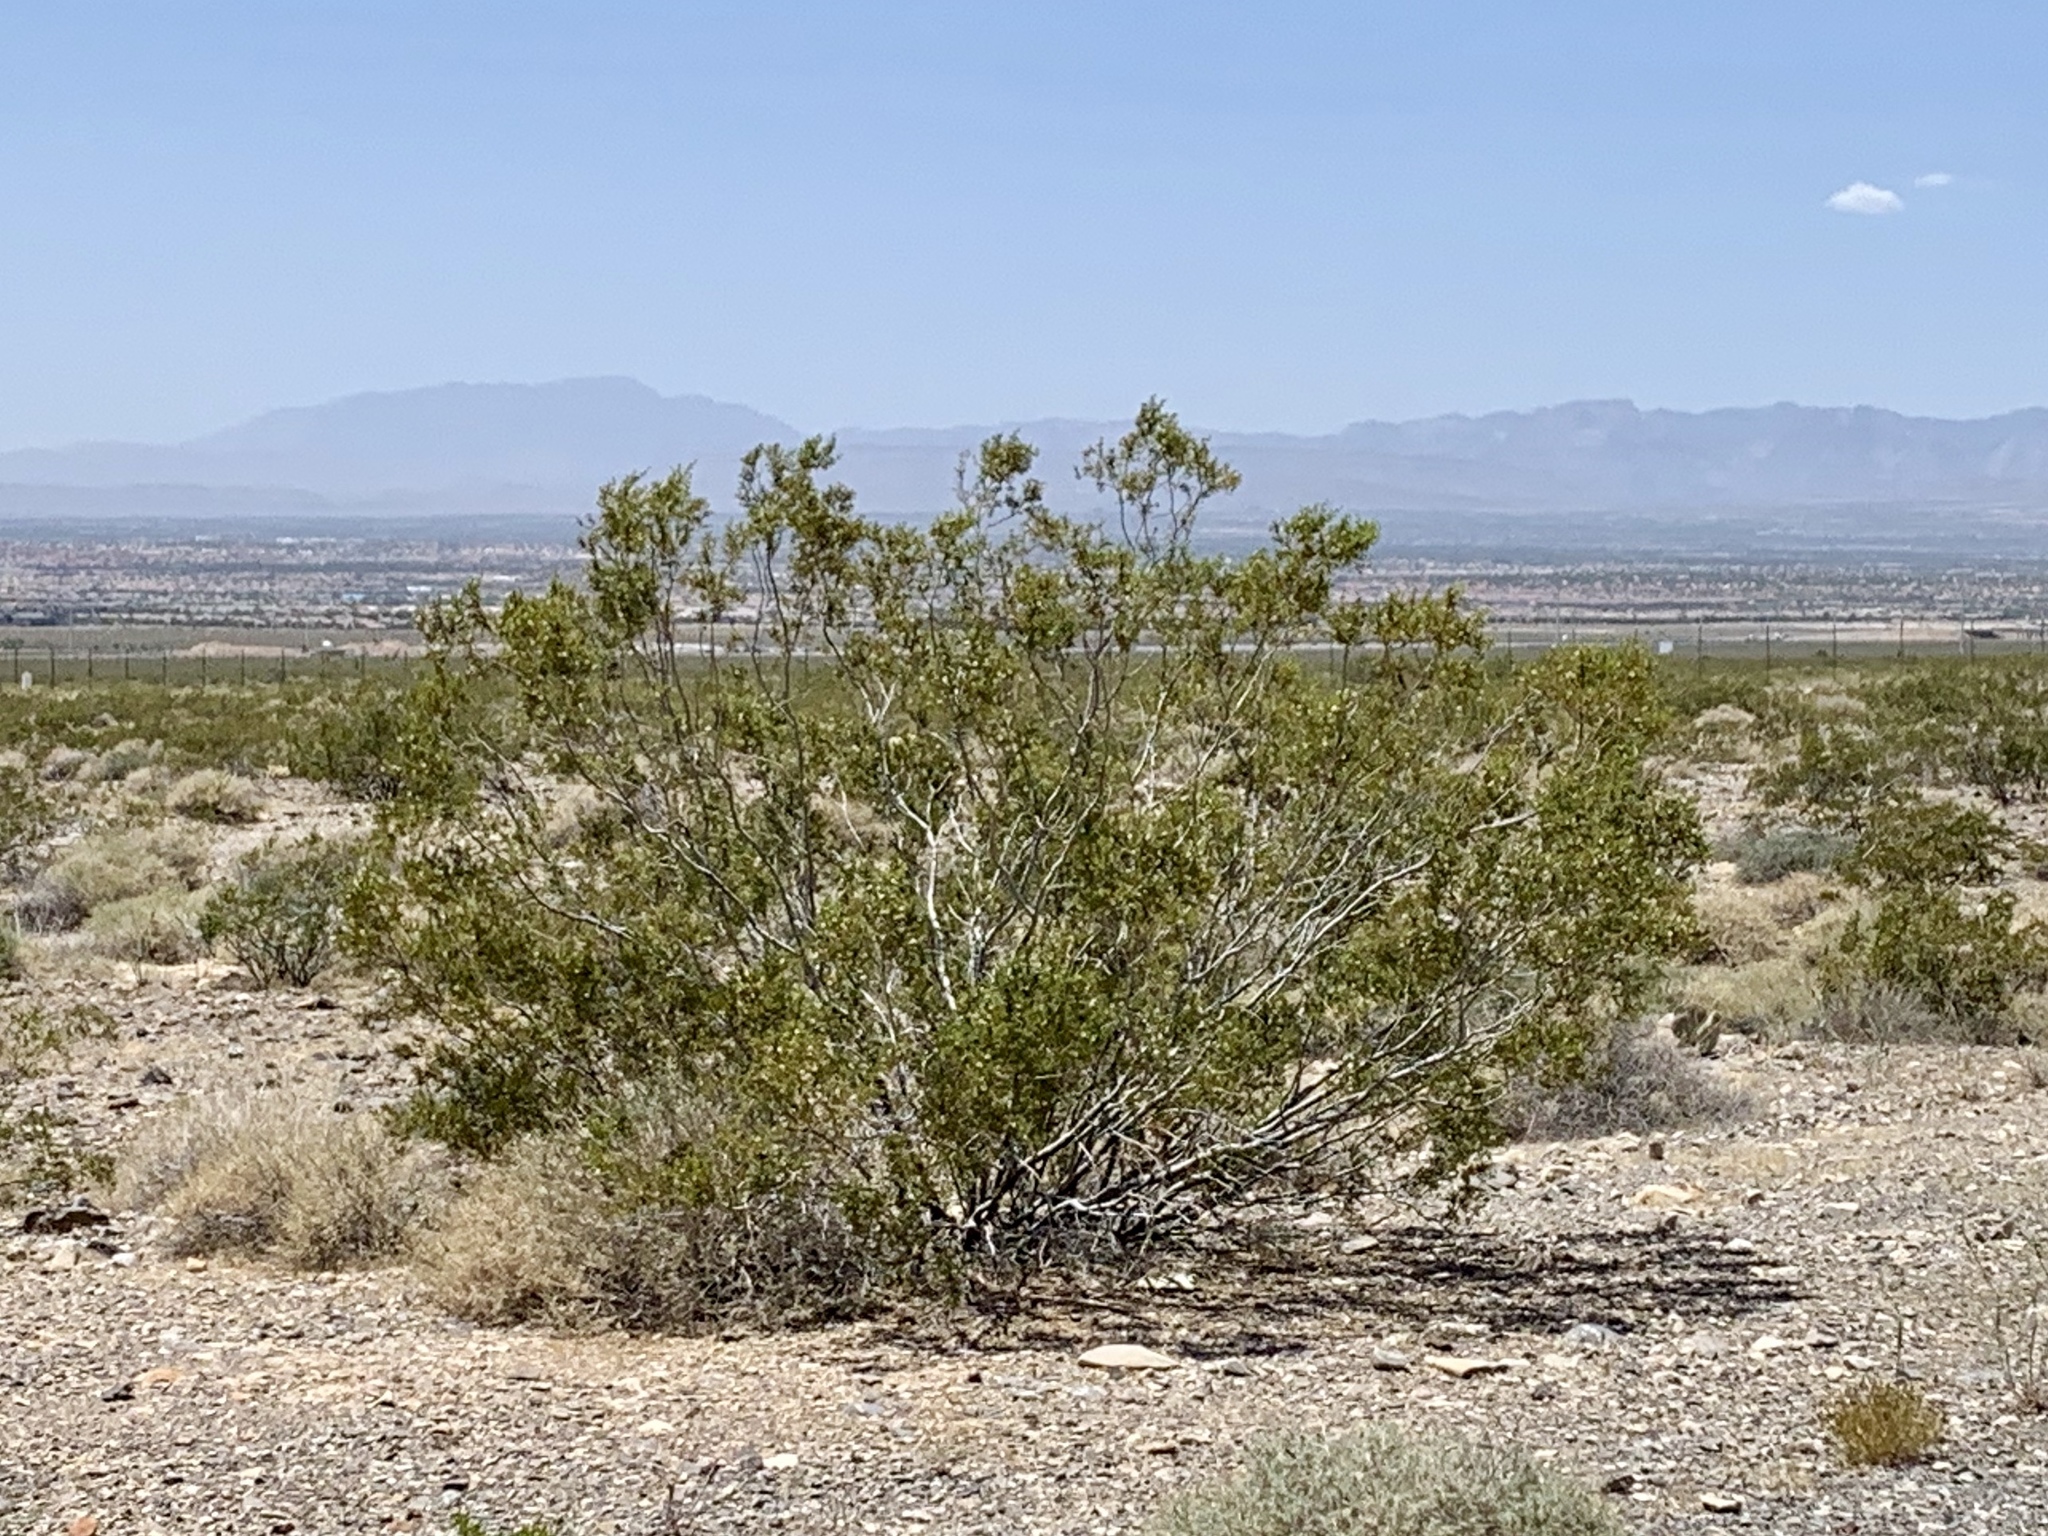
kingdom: Plantae
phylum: Tracheophyta
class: Magnoliopsida
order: Zygophyllales
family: Zygophyllaceae
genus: Larrea
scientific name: Larrea tridentata
